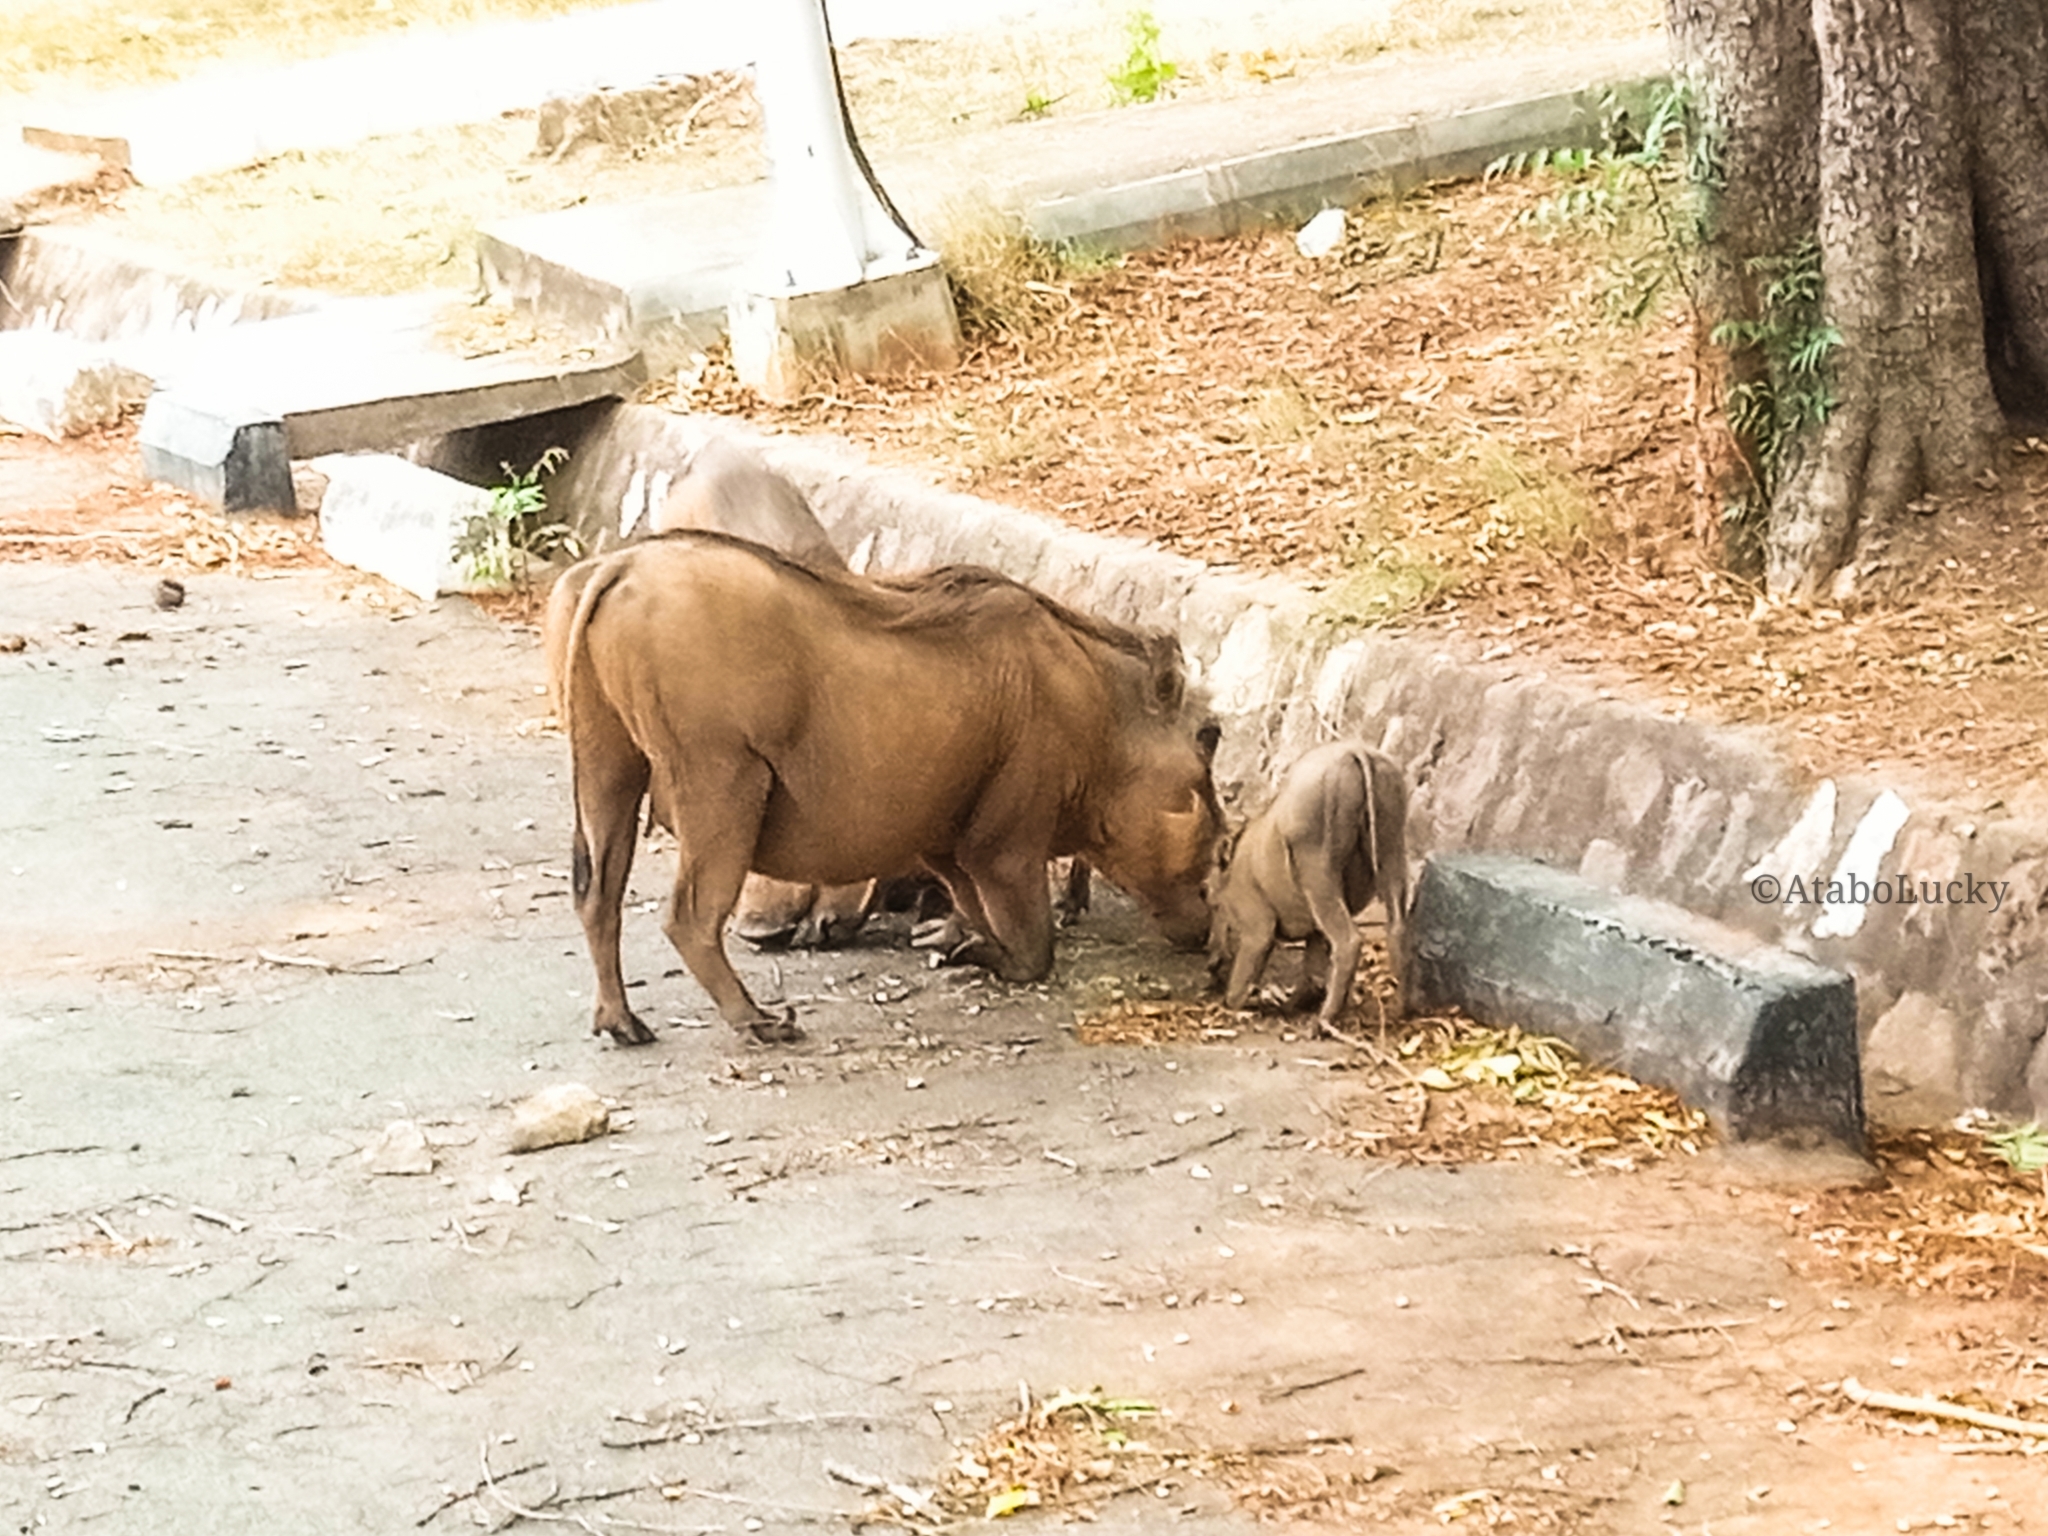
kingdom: Animalia
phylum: Chordata
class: Mammalia
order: Artiodactyla
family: Suidae
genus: Phacochoerus
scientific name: Phacochoerus africanus
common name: Common warthog
